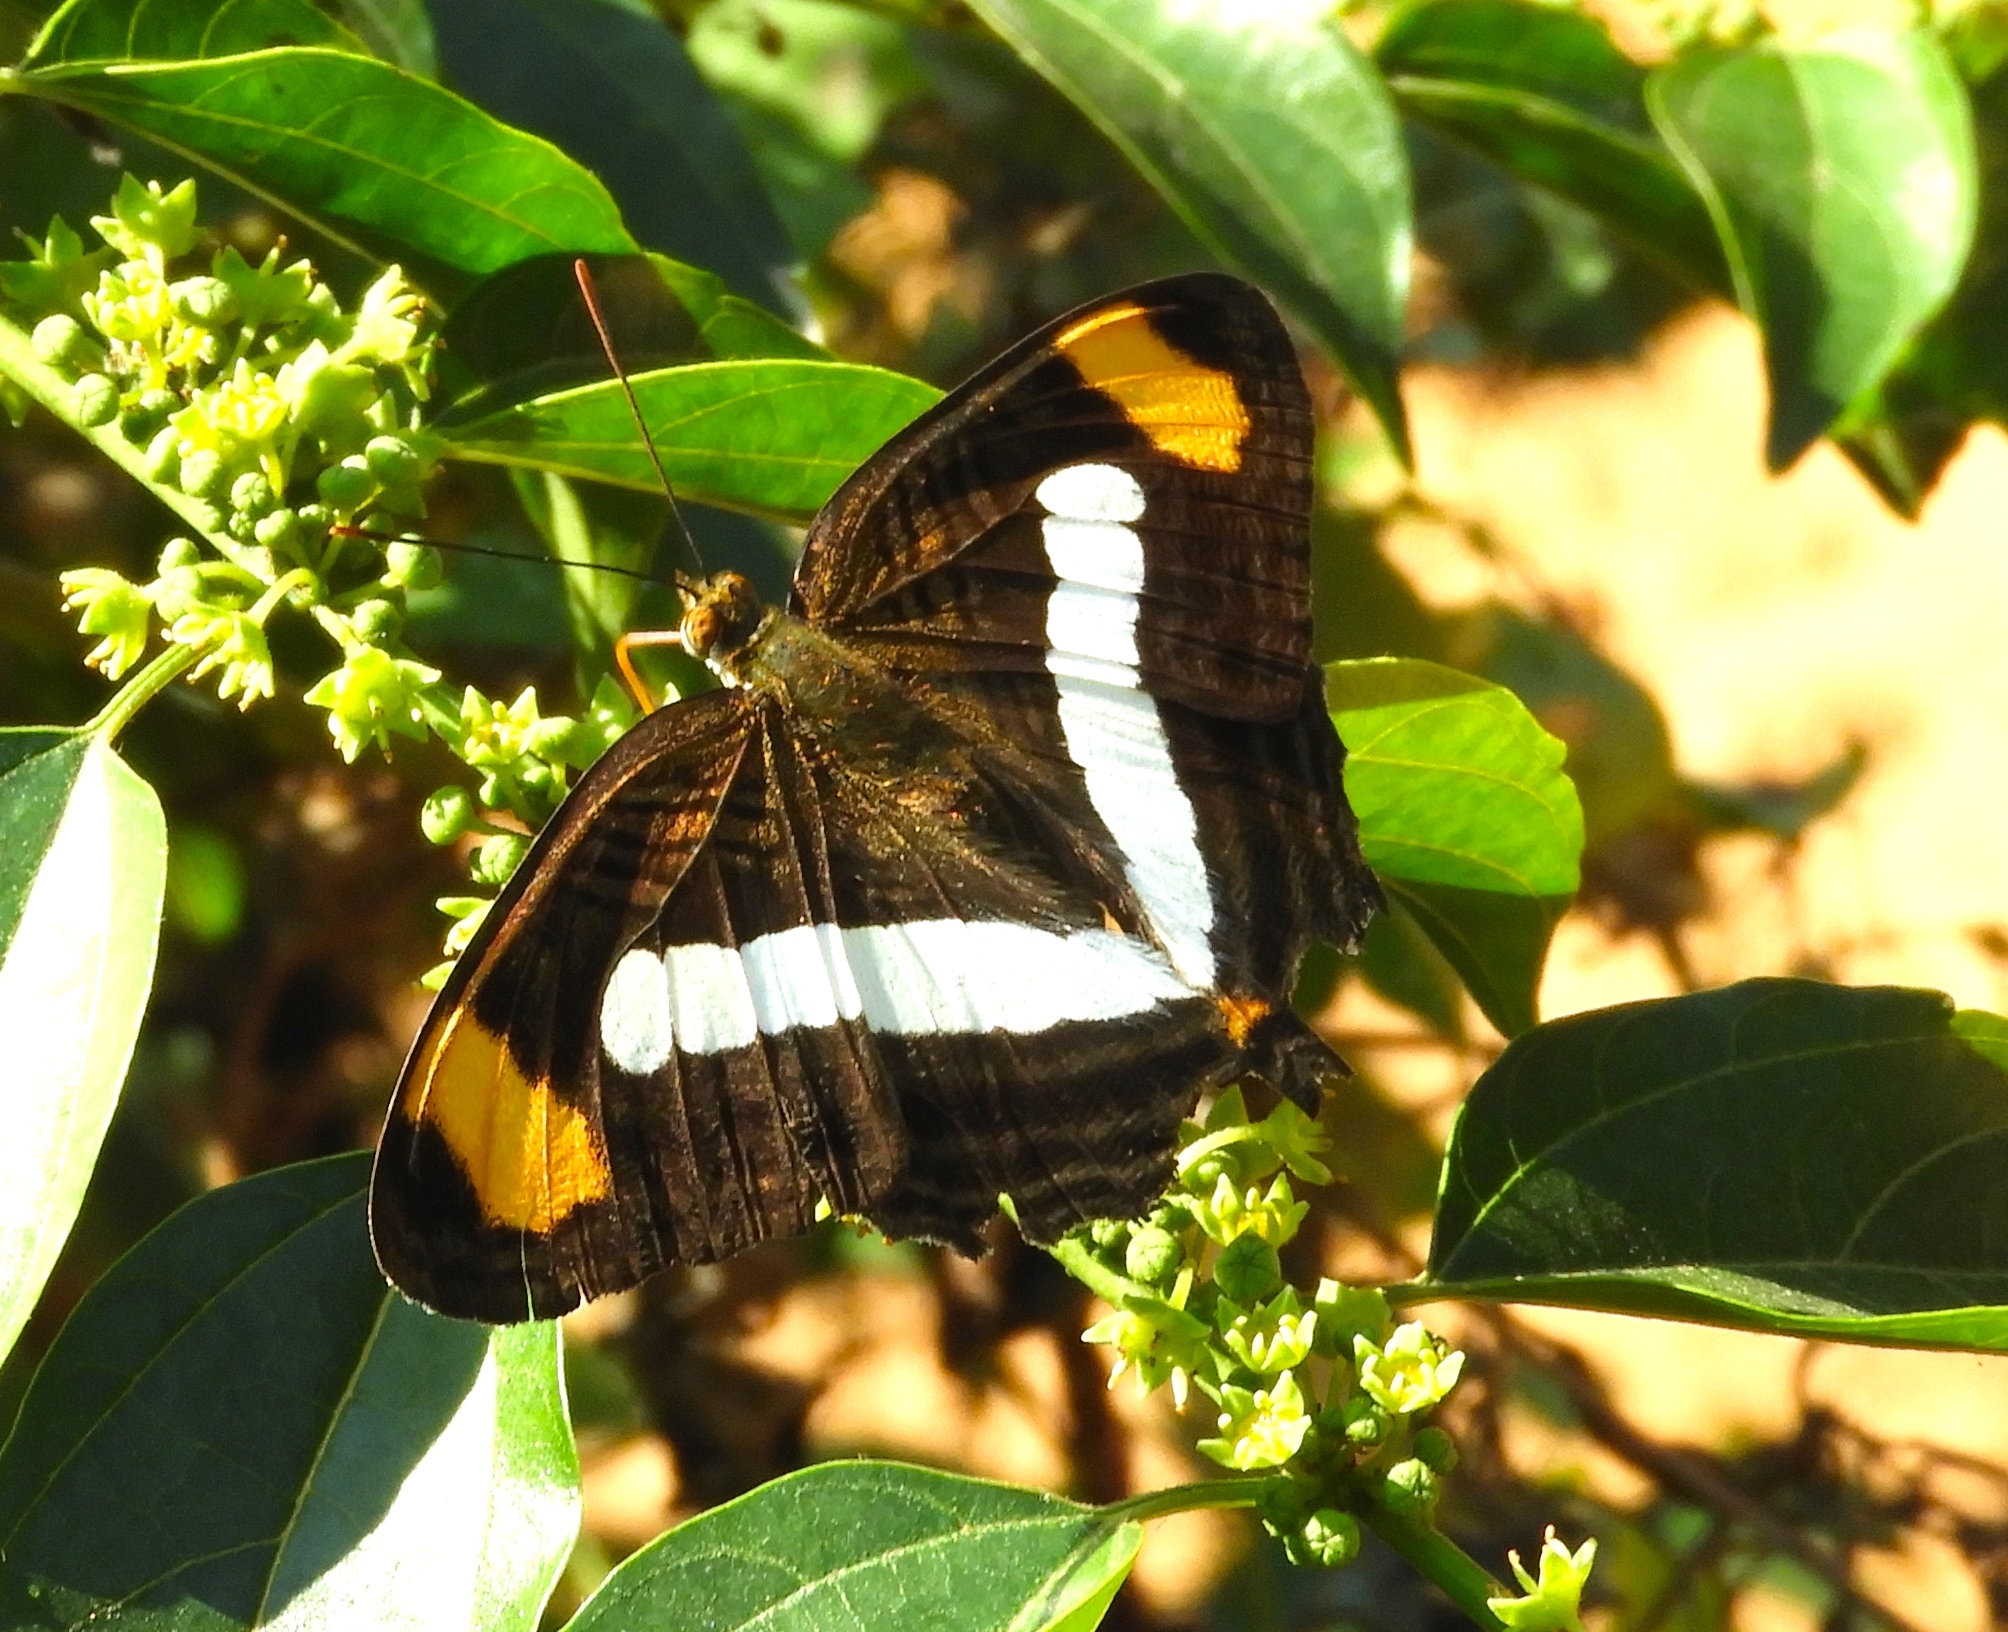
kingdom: Animalia
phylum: Arthropoda
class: Insecta
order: Lepidoptera
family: Nymphalidae
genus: Limenitis
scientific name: Limenitis iphiclus
